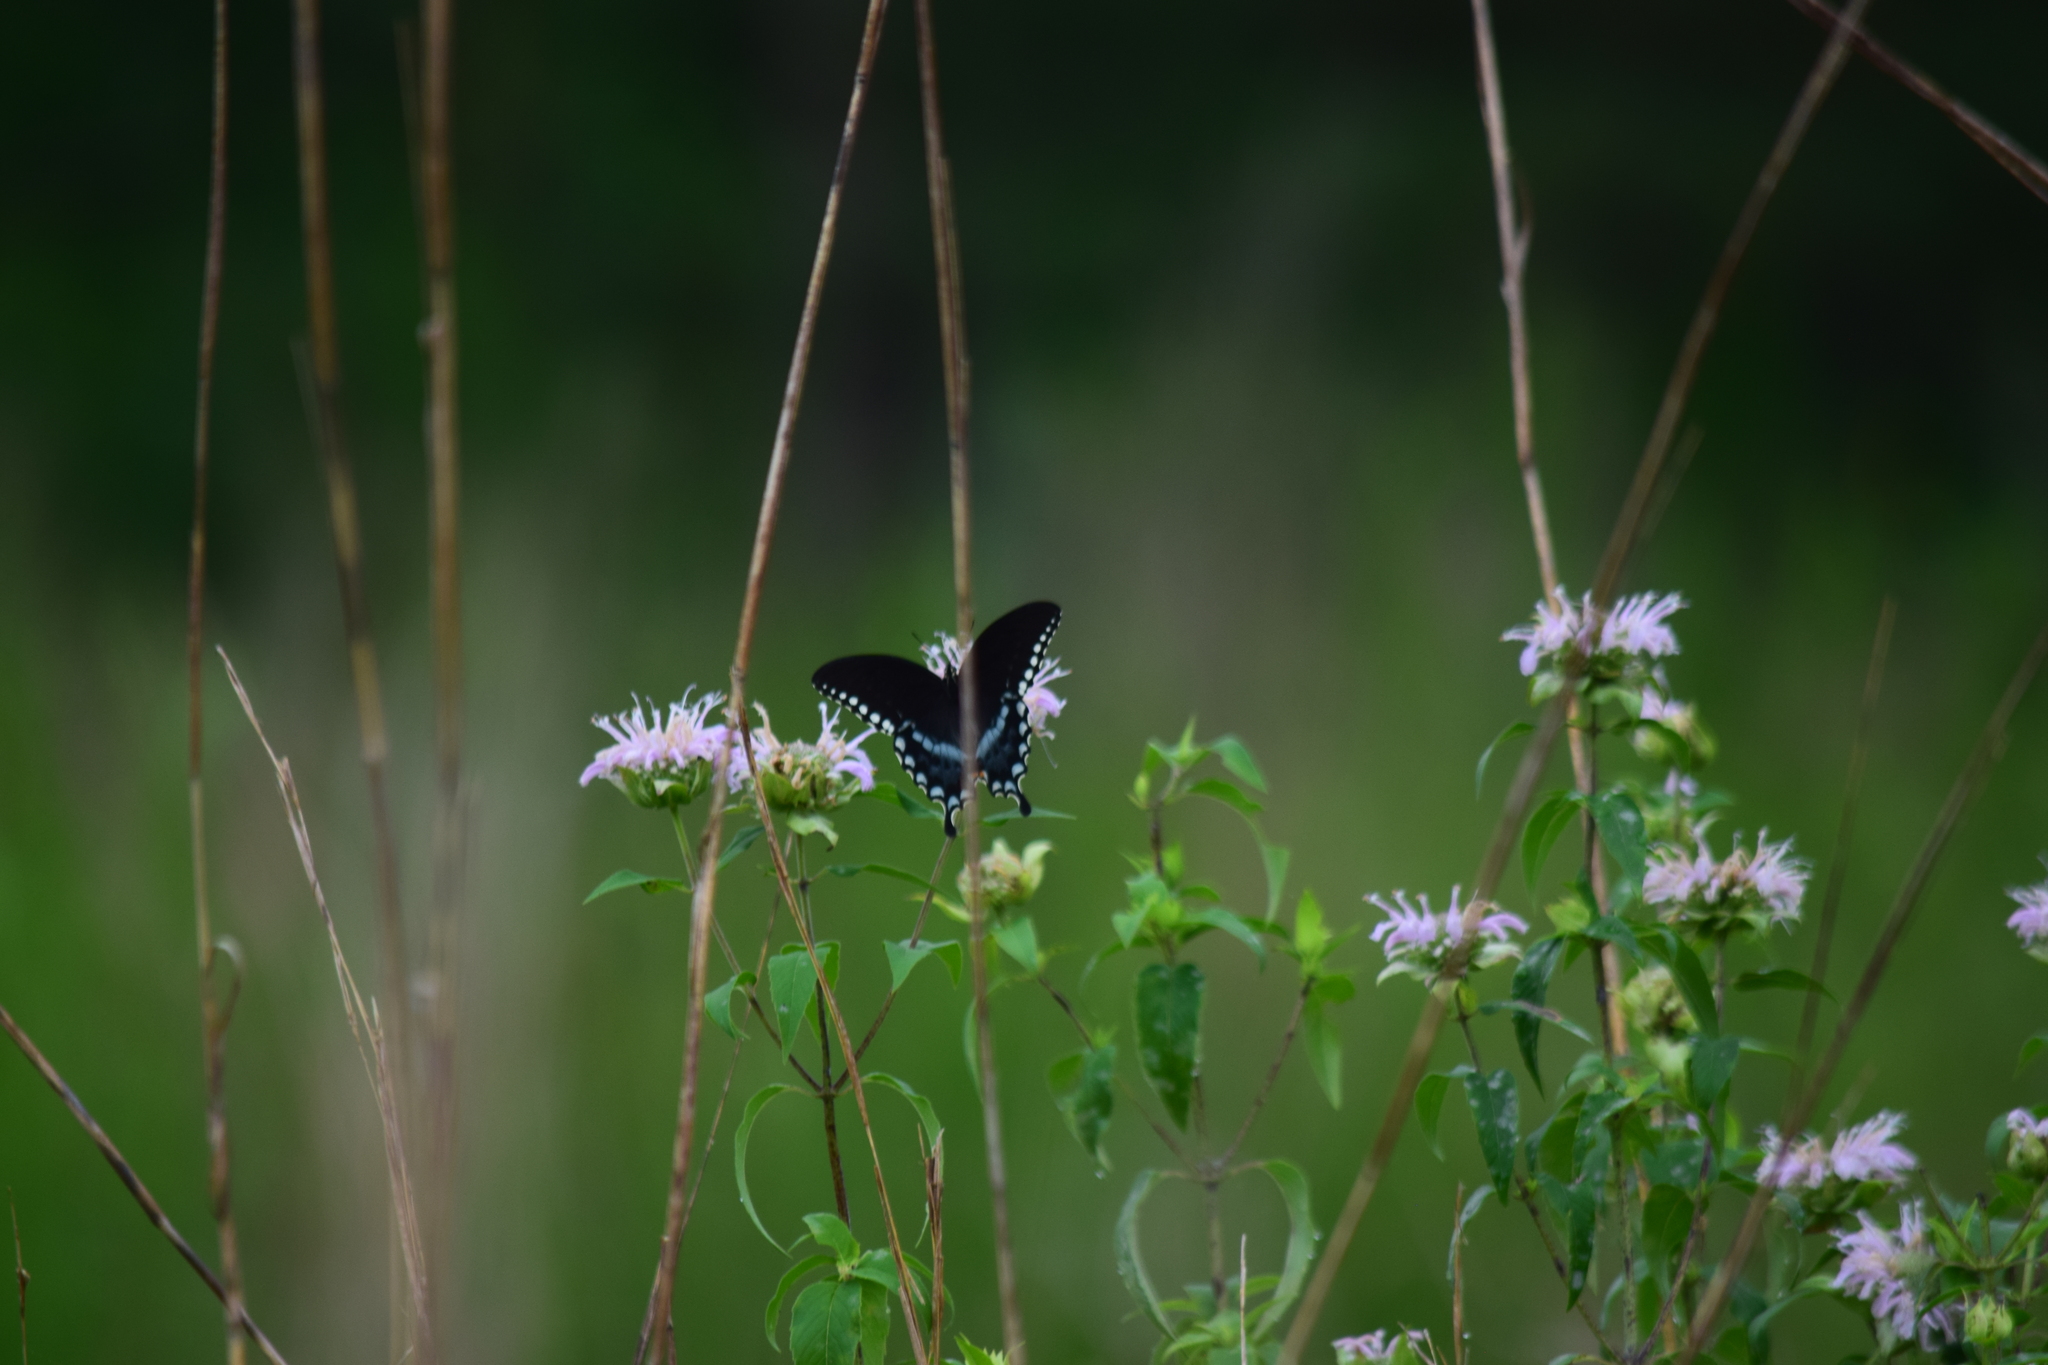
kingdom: Animalia
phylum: Arthropoda
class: Insecta
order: Lepidoptera
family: Papilionidae
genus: Papilio
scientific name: Papilio troilus
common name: Spicebush swallowtail
